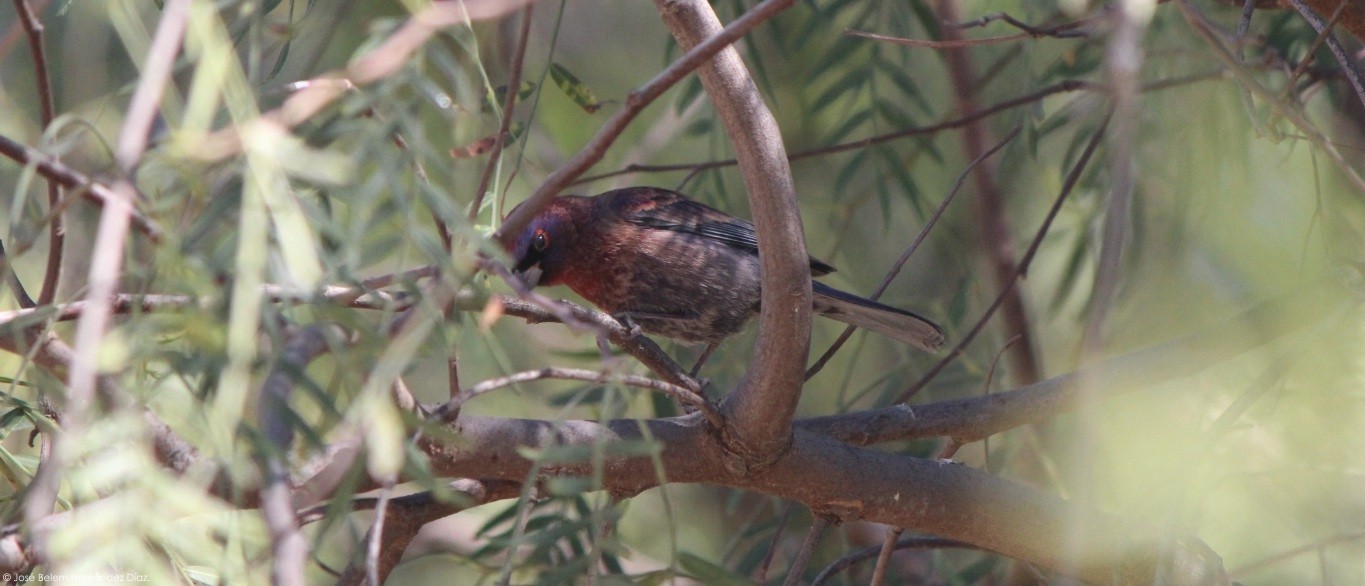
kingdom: Animalia
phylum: Chordata
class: Aves
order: Passeriformes
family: Cardinalidae
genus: Passerina
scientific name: Passerina versicolor
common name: Varied bunting
